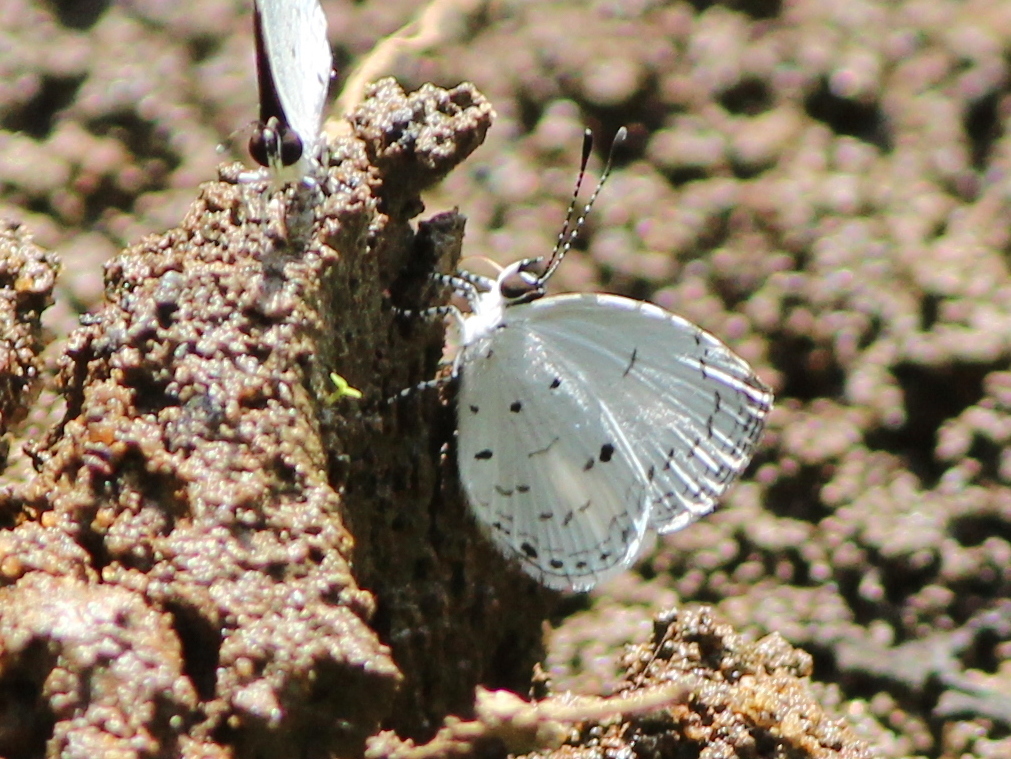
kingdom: Animalia
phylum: Arthropoda
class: Insecta
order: Lepidoptera
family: Lycaenidae
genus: Neopithecops
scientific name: Neopithecops zalmora
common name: Quaker
